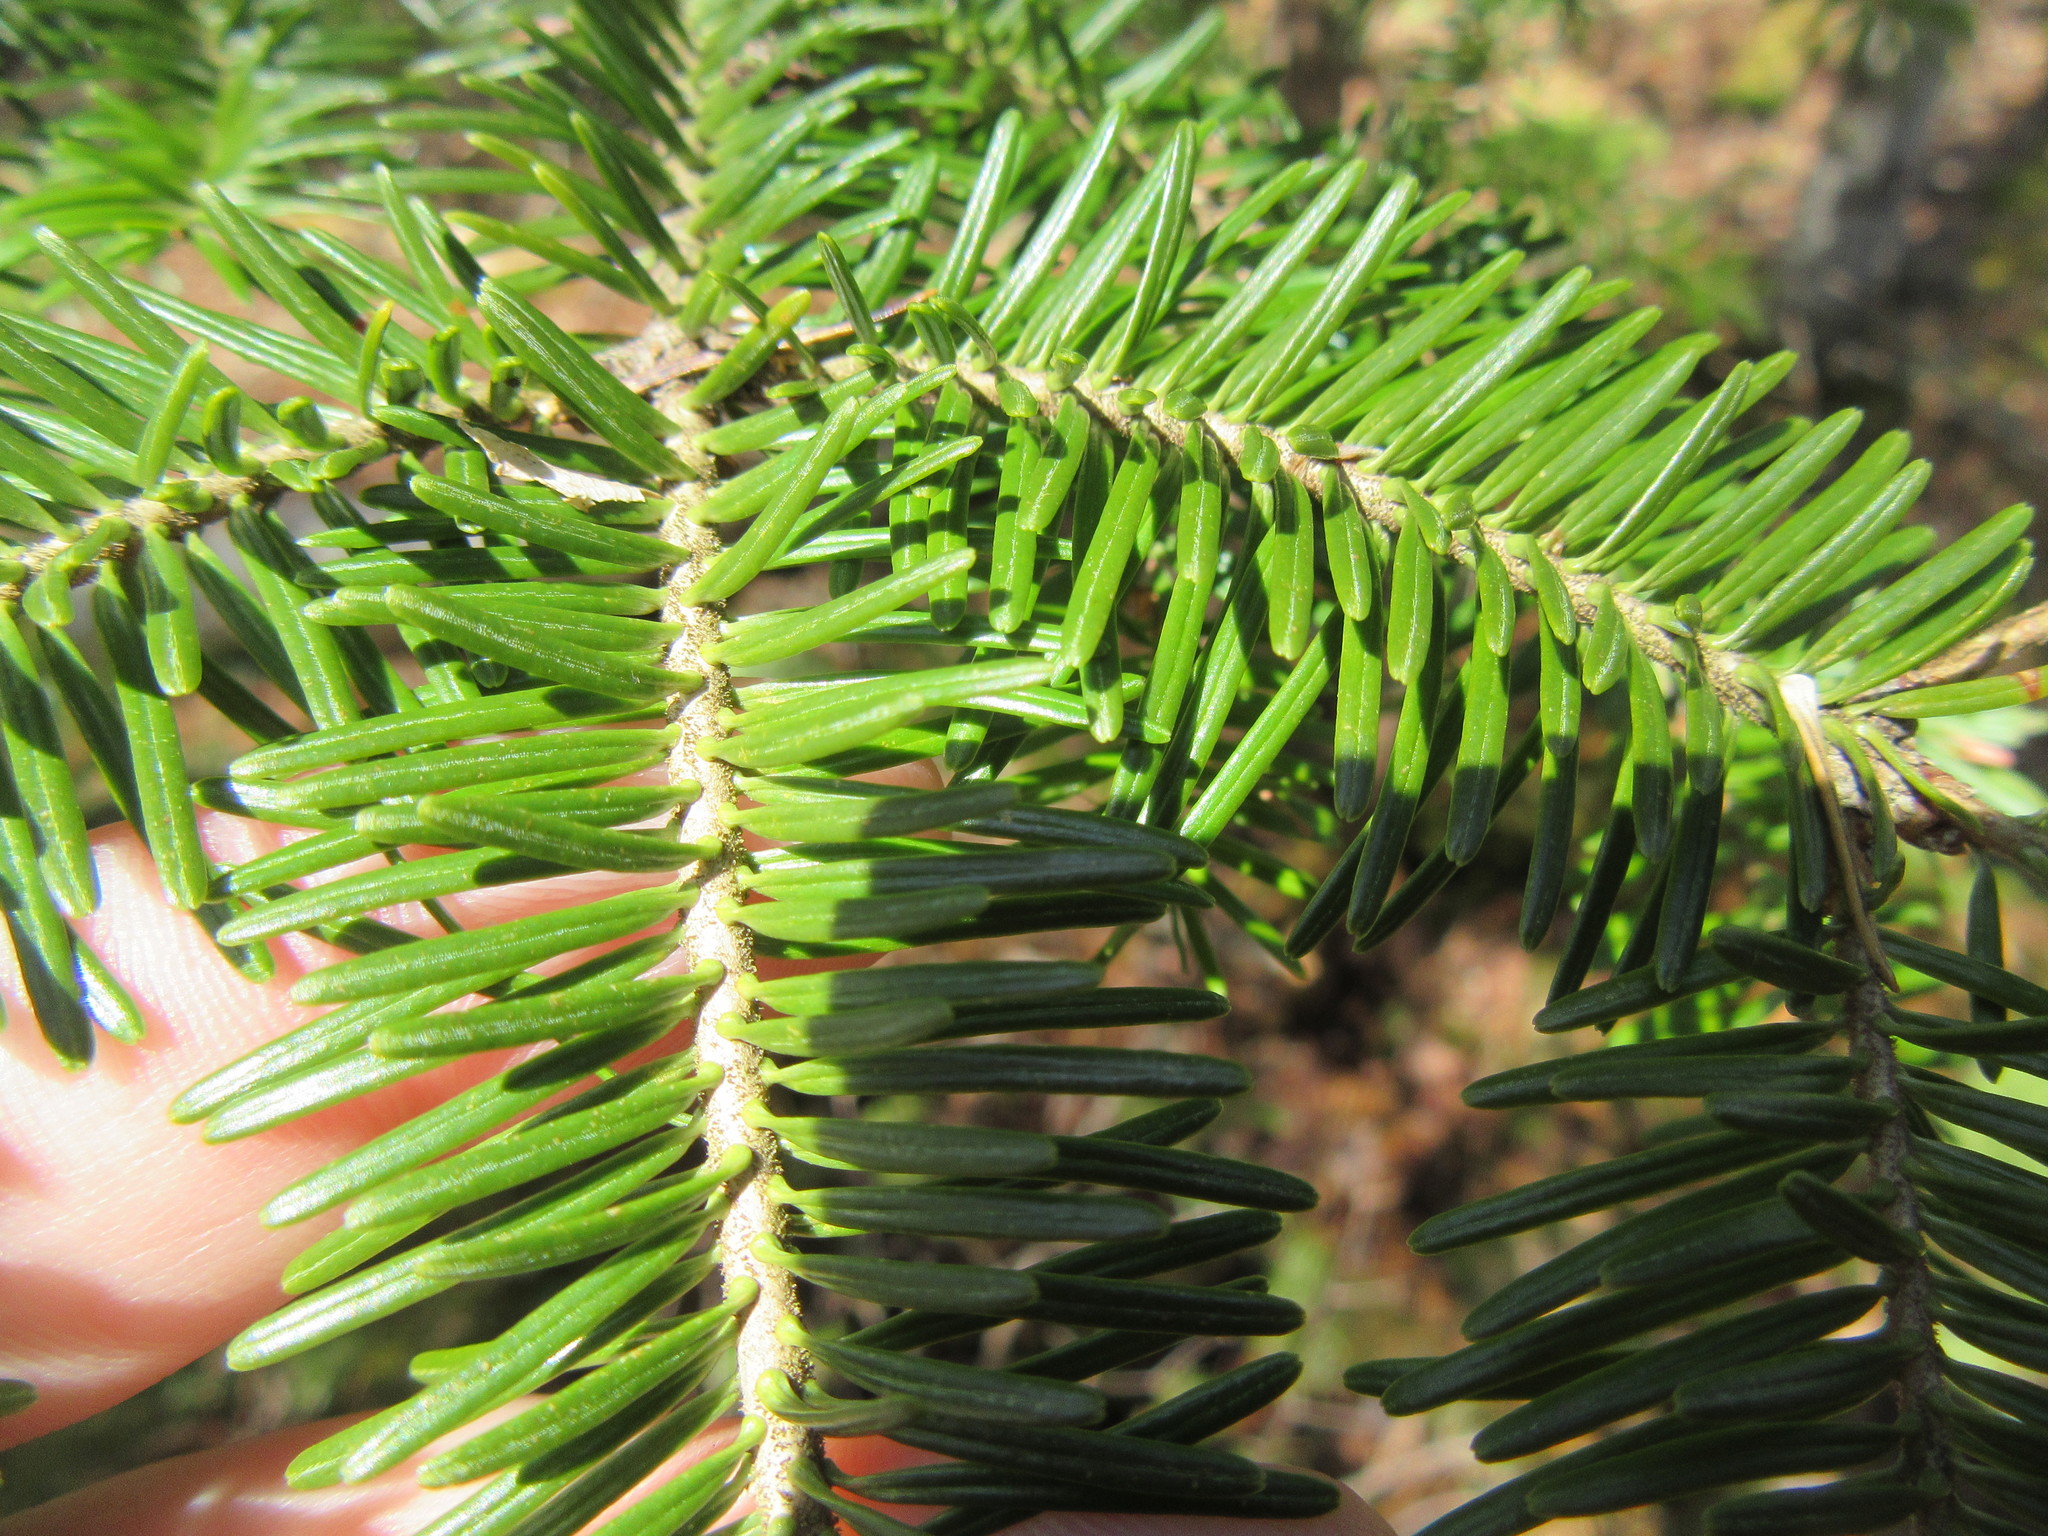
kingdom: Plantae
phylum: Tracheophyta
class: Pinopsida
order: Pinales
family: Pinaceae
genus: Abies
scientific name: Abies balsamea
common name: Balsam fir
